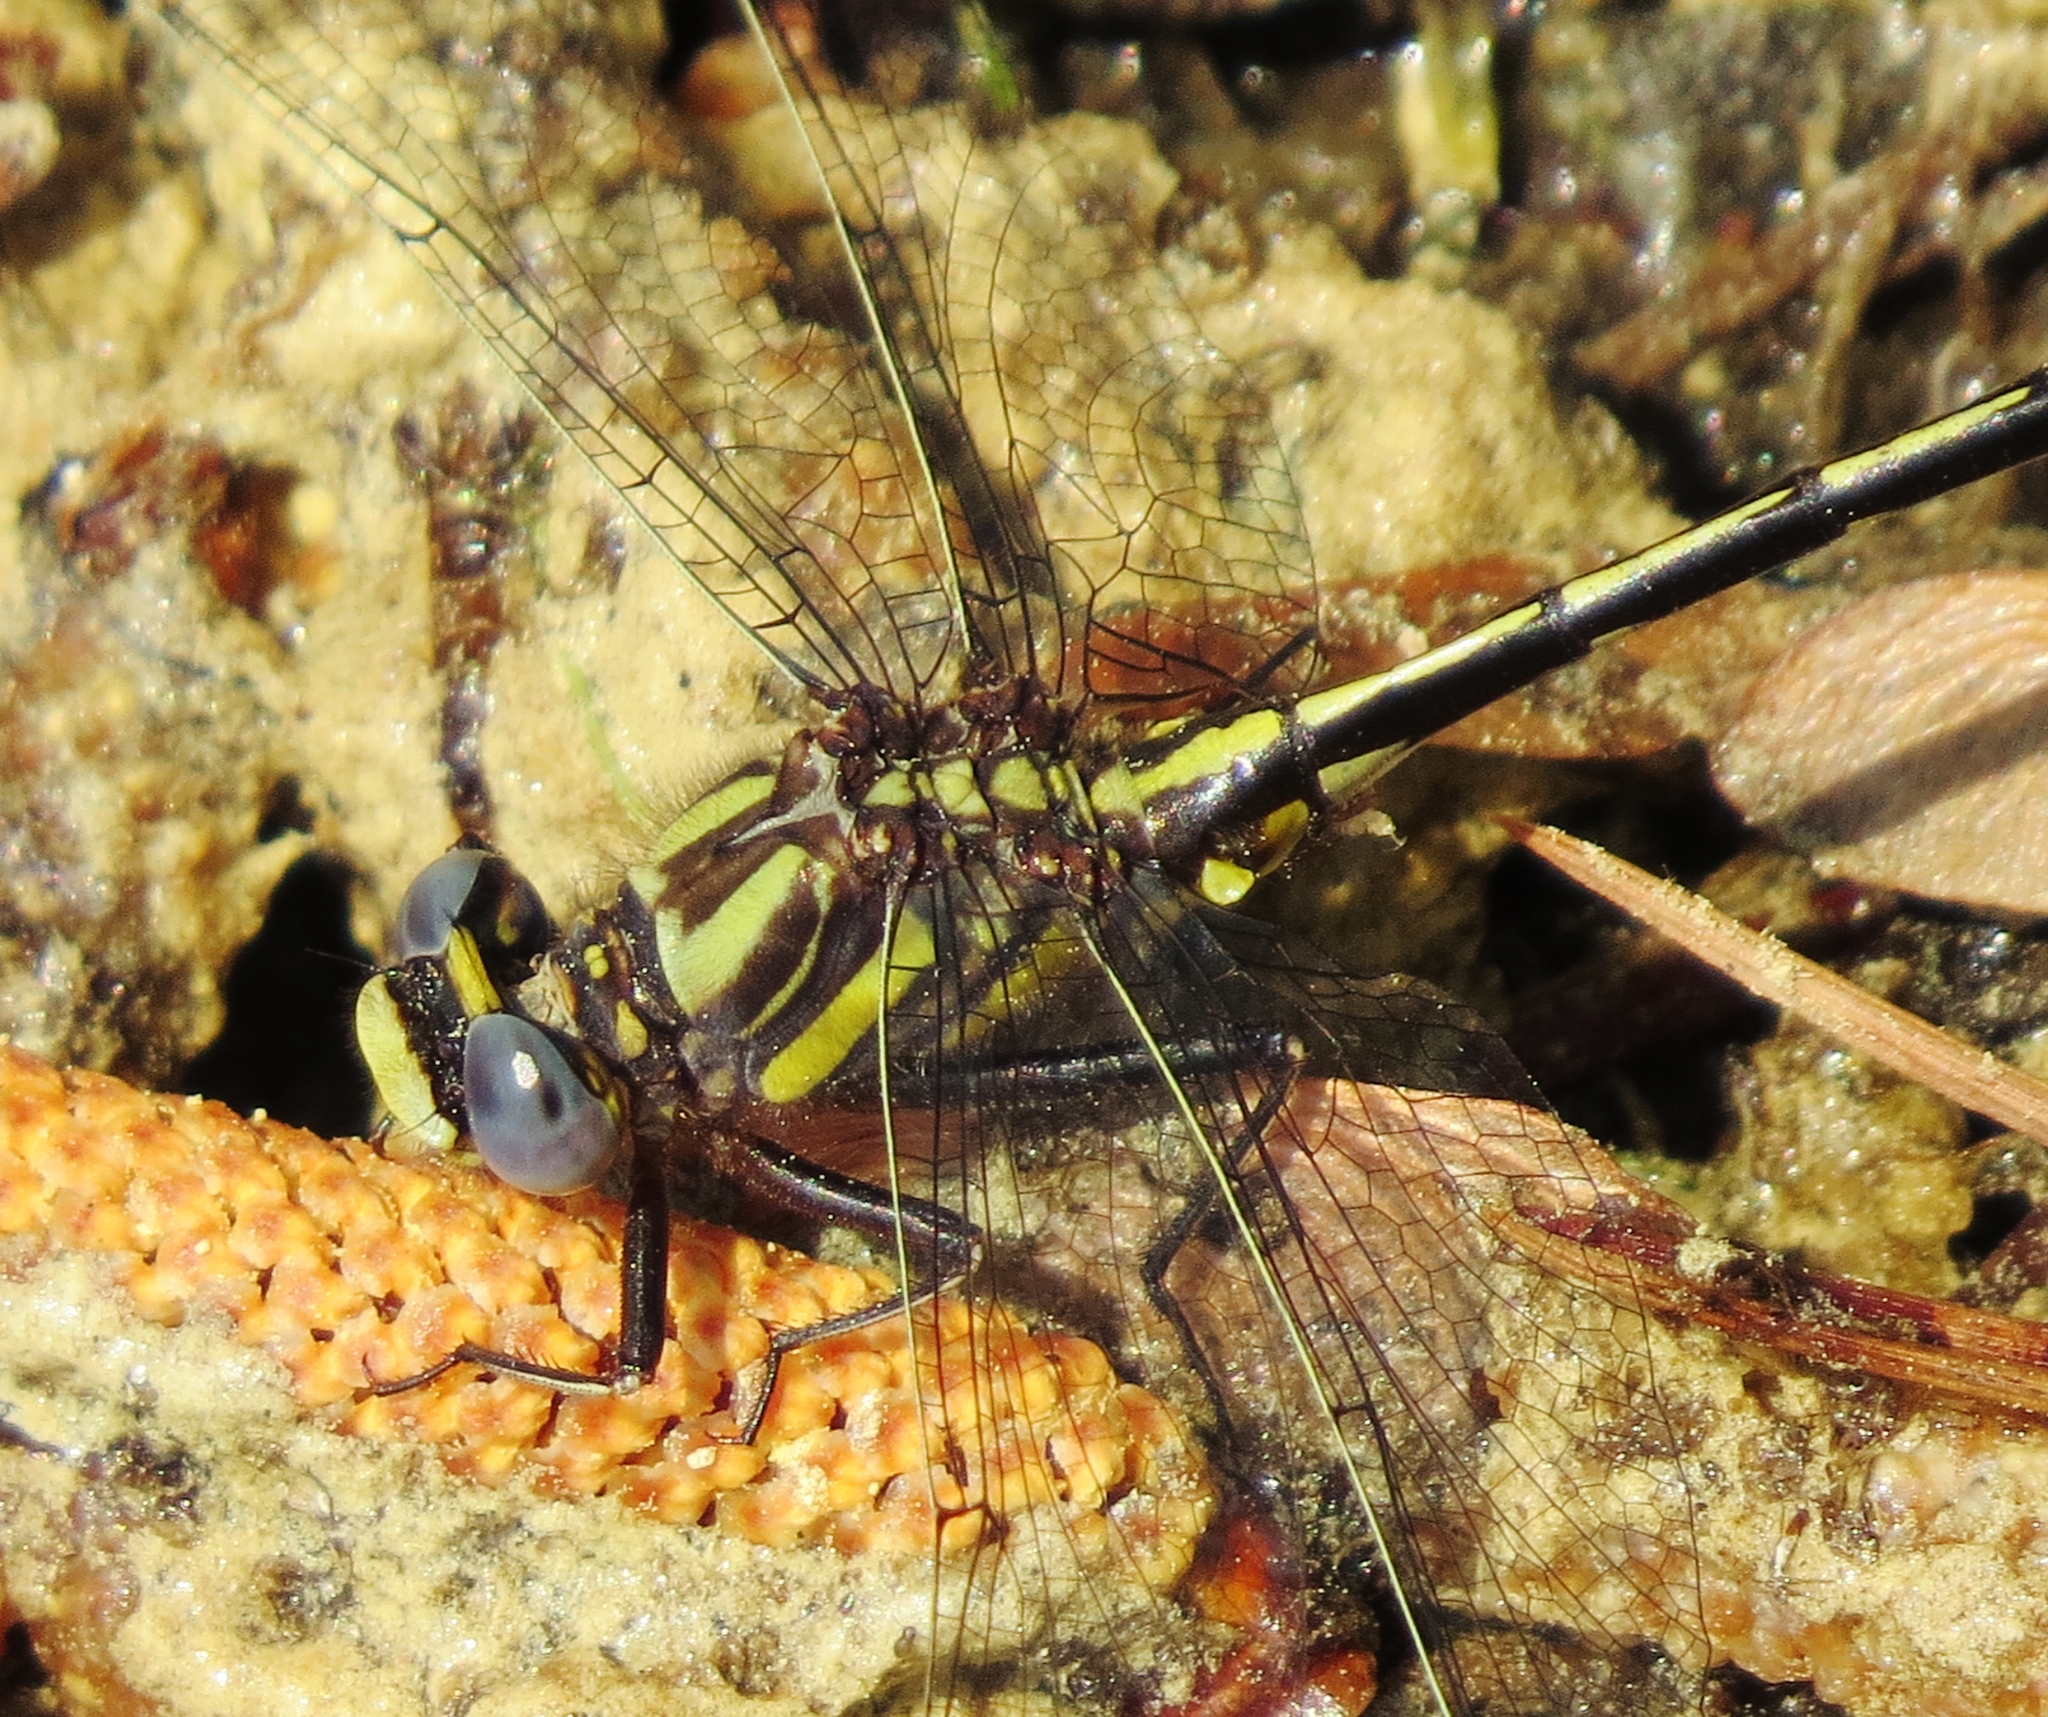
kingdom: Animalia
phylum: Arthropoda
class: Insecta
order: Odonata
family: Gomphidae
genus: Phanogomphus
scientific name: Phanogomphus diminutus
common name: Diminutive clubtail
